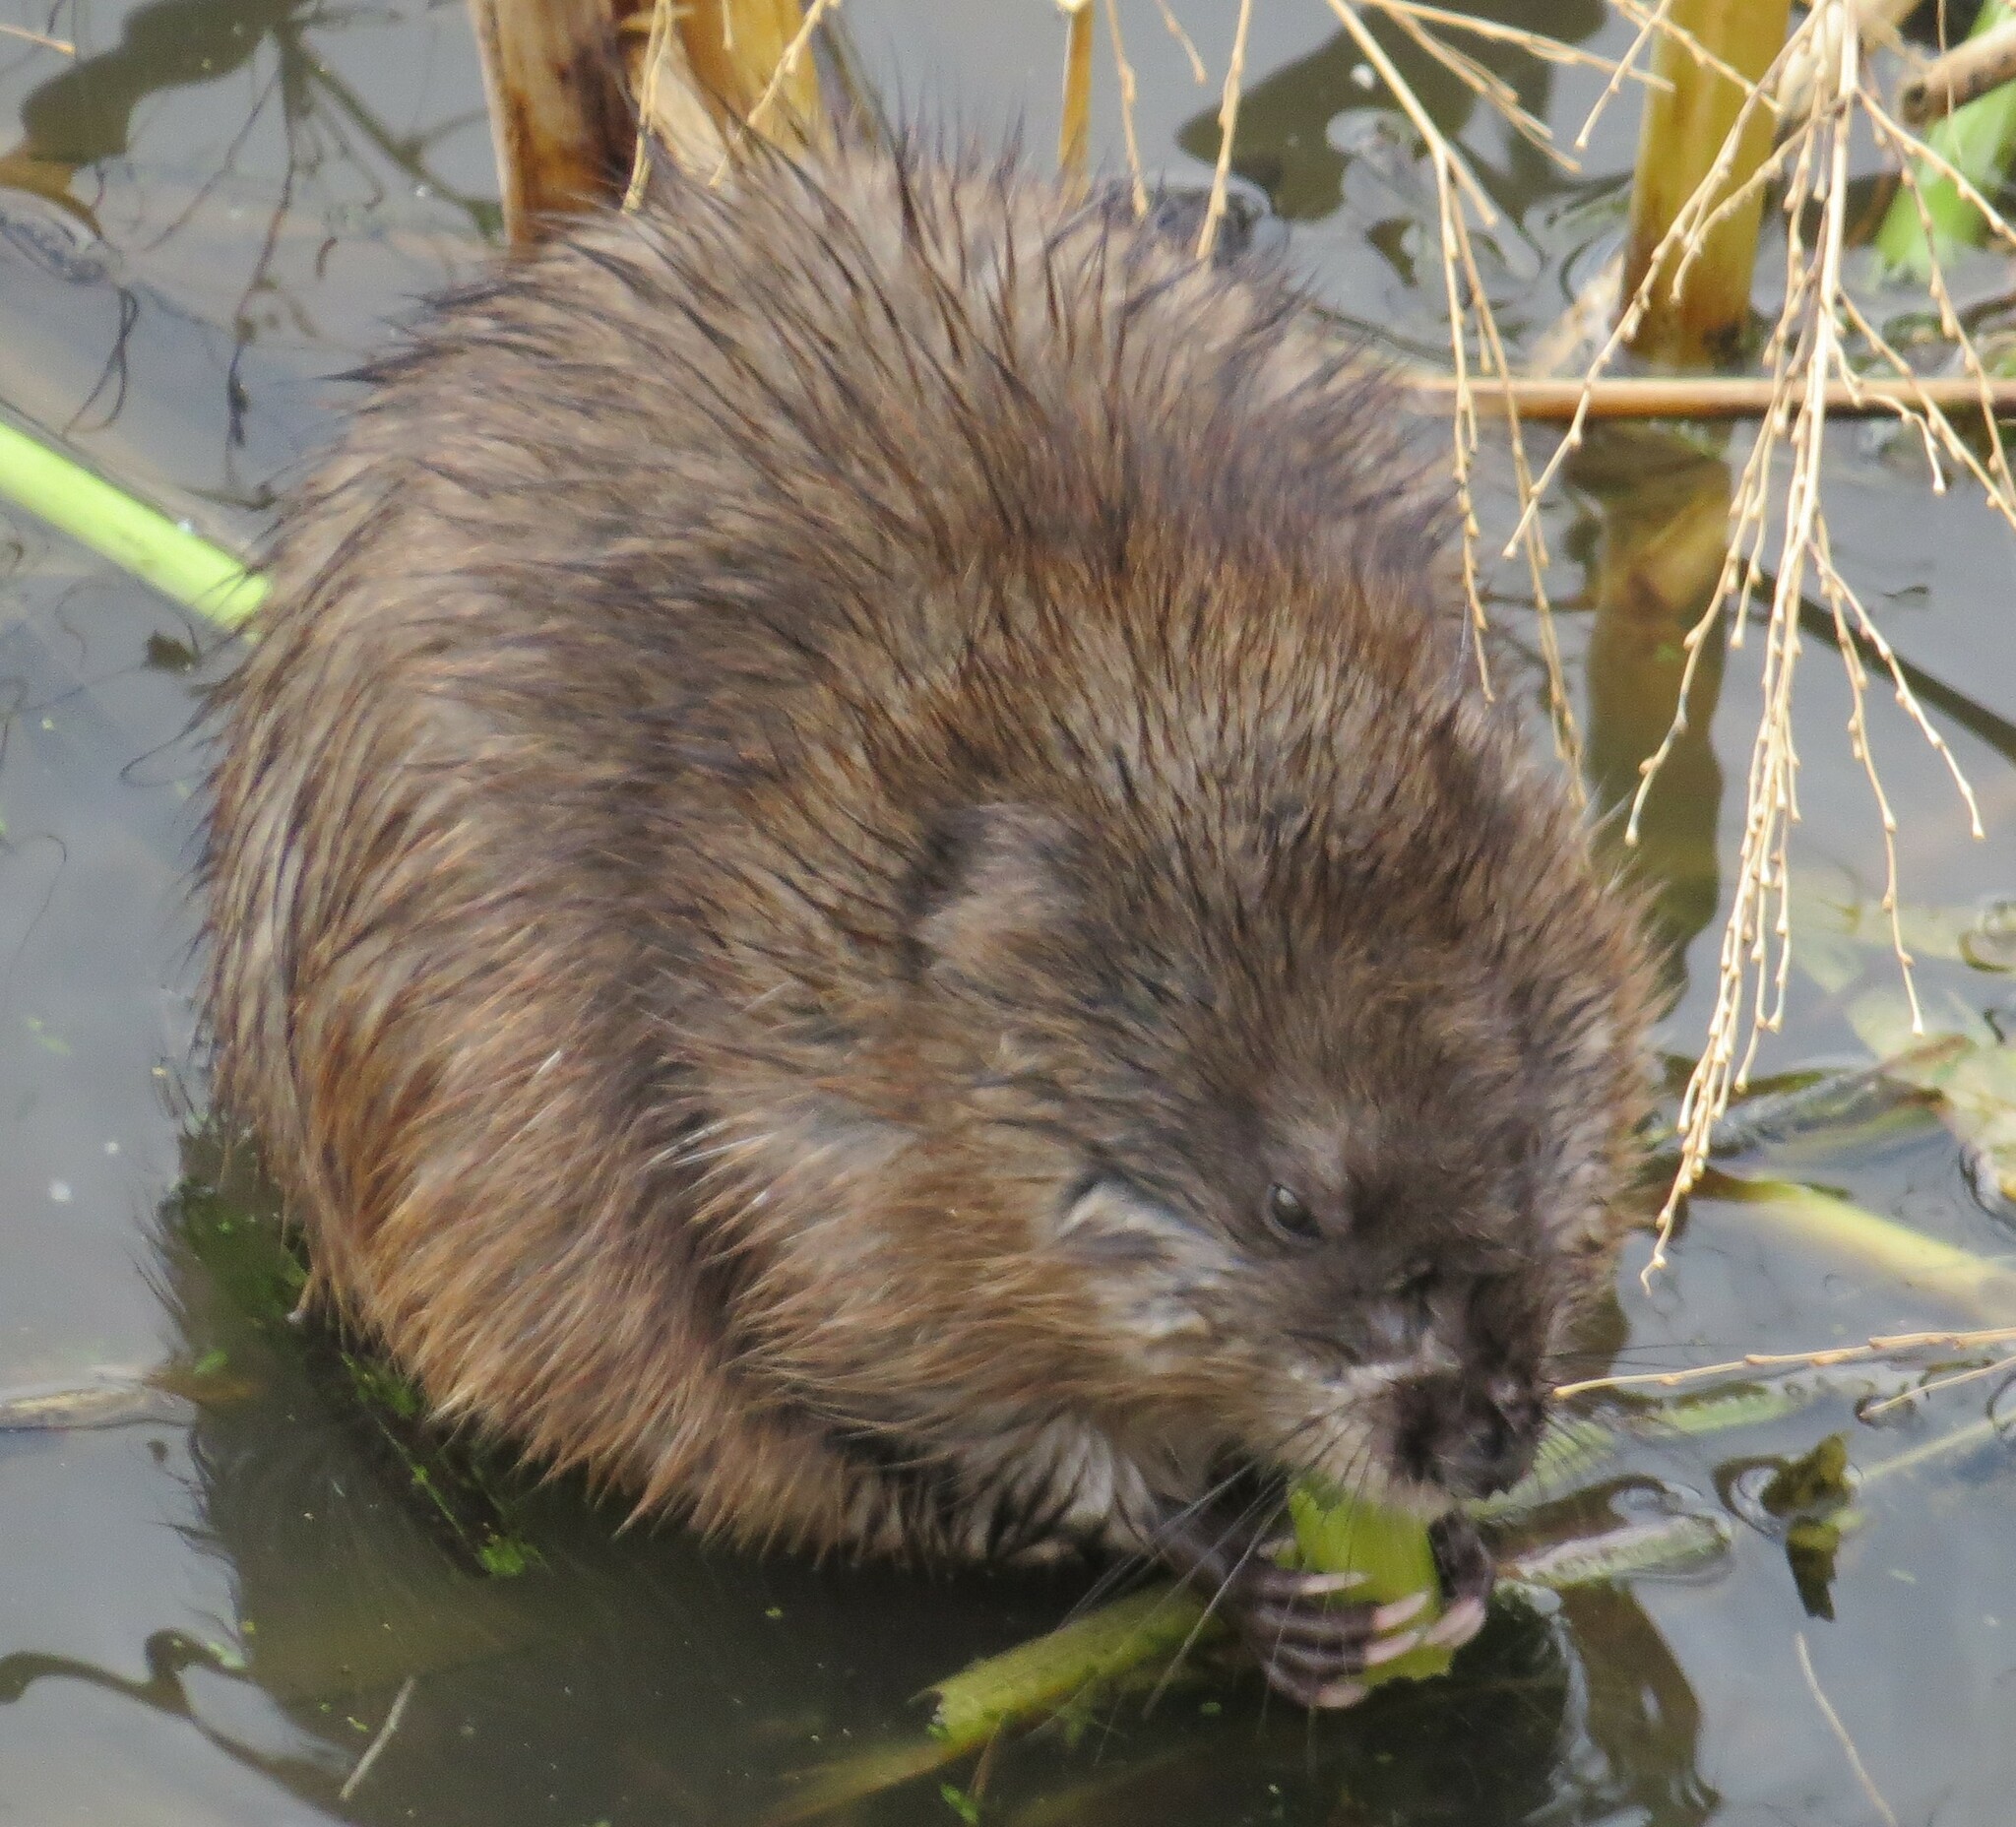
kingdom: Animalia
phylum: Chordata
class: Mammalia
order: Rodentia
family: Cricetidae
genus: Ondatra
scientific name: Ondatra zibethicus
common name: Muskrat
